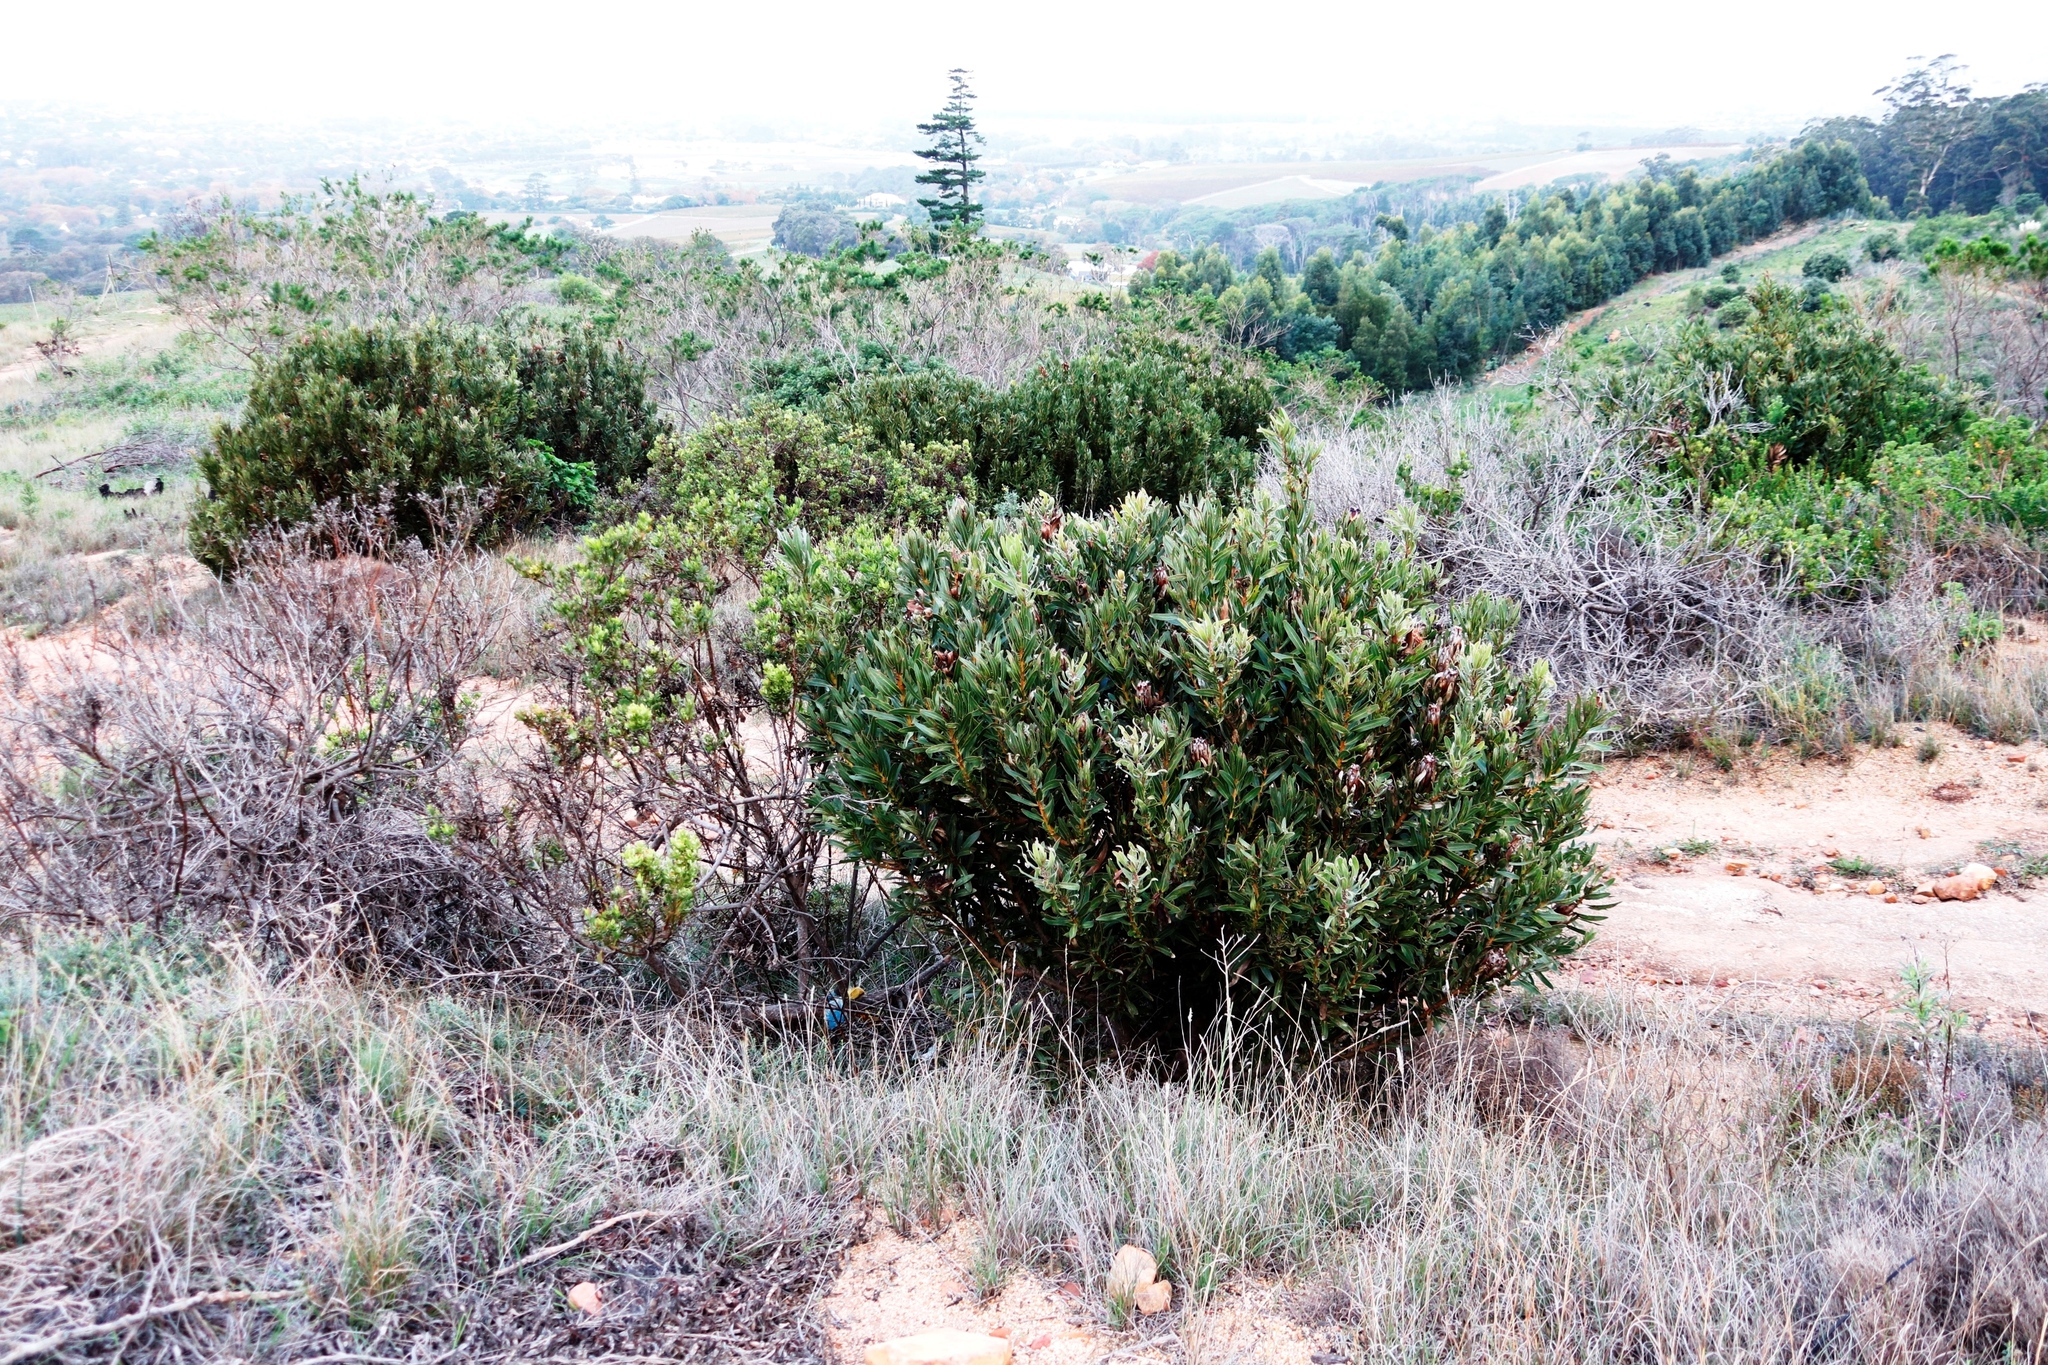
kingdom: Plantae
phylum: Tracheophyta
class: Magnoliopsida
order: Proteales
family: Proteaceae
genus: Protea
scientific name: Protea lepidocarpodendron
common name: Black-bearded protea
